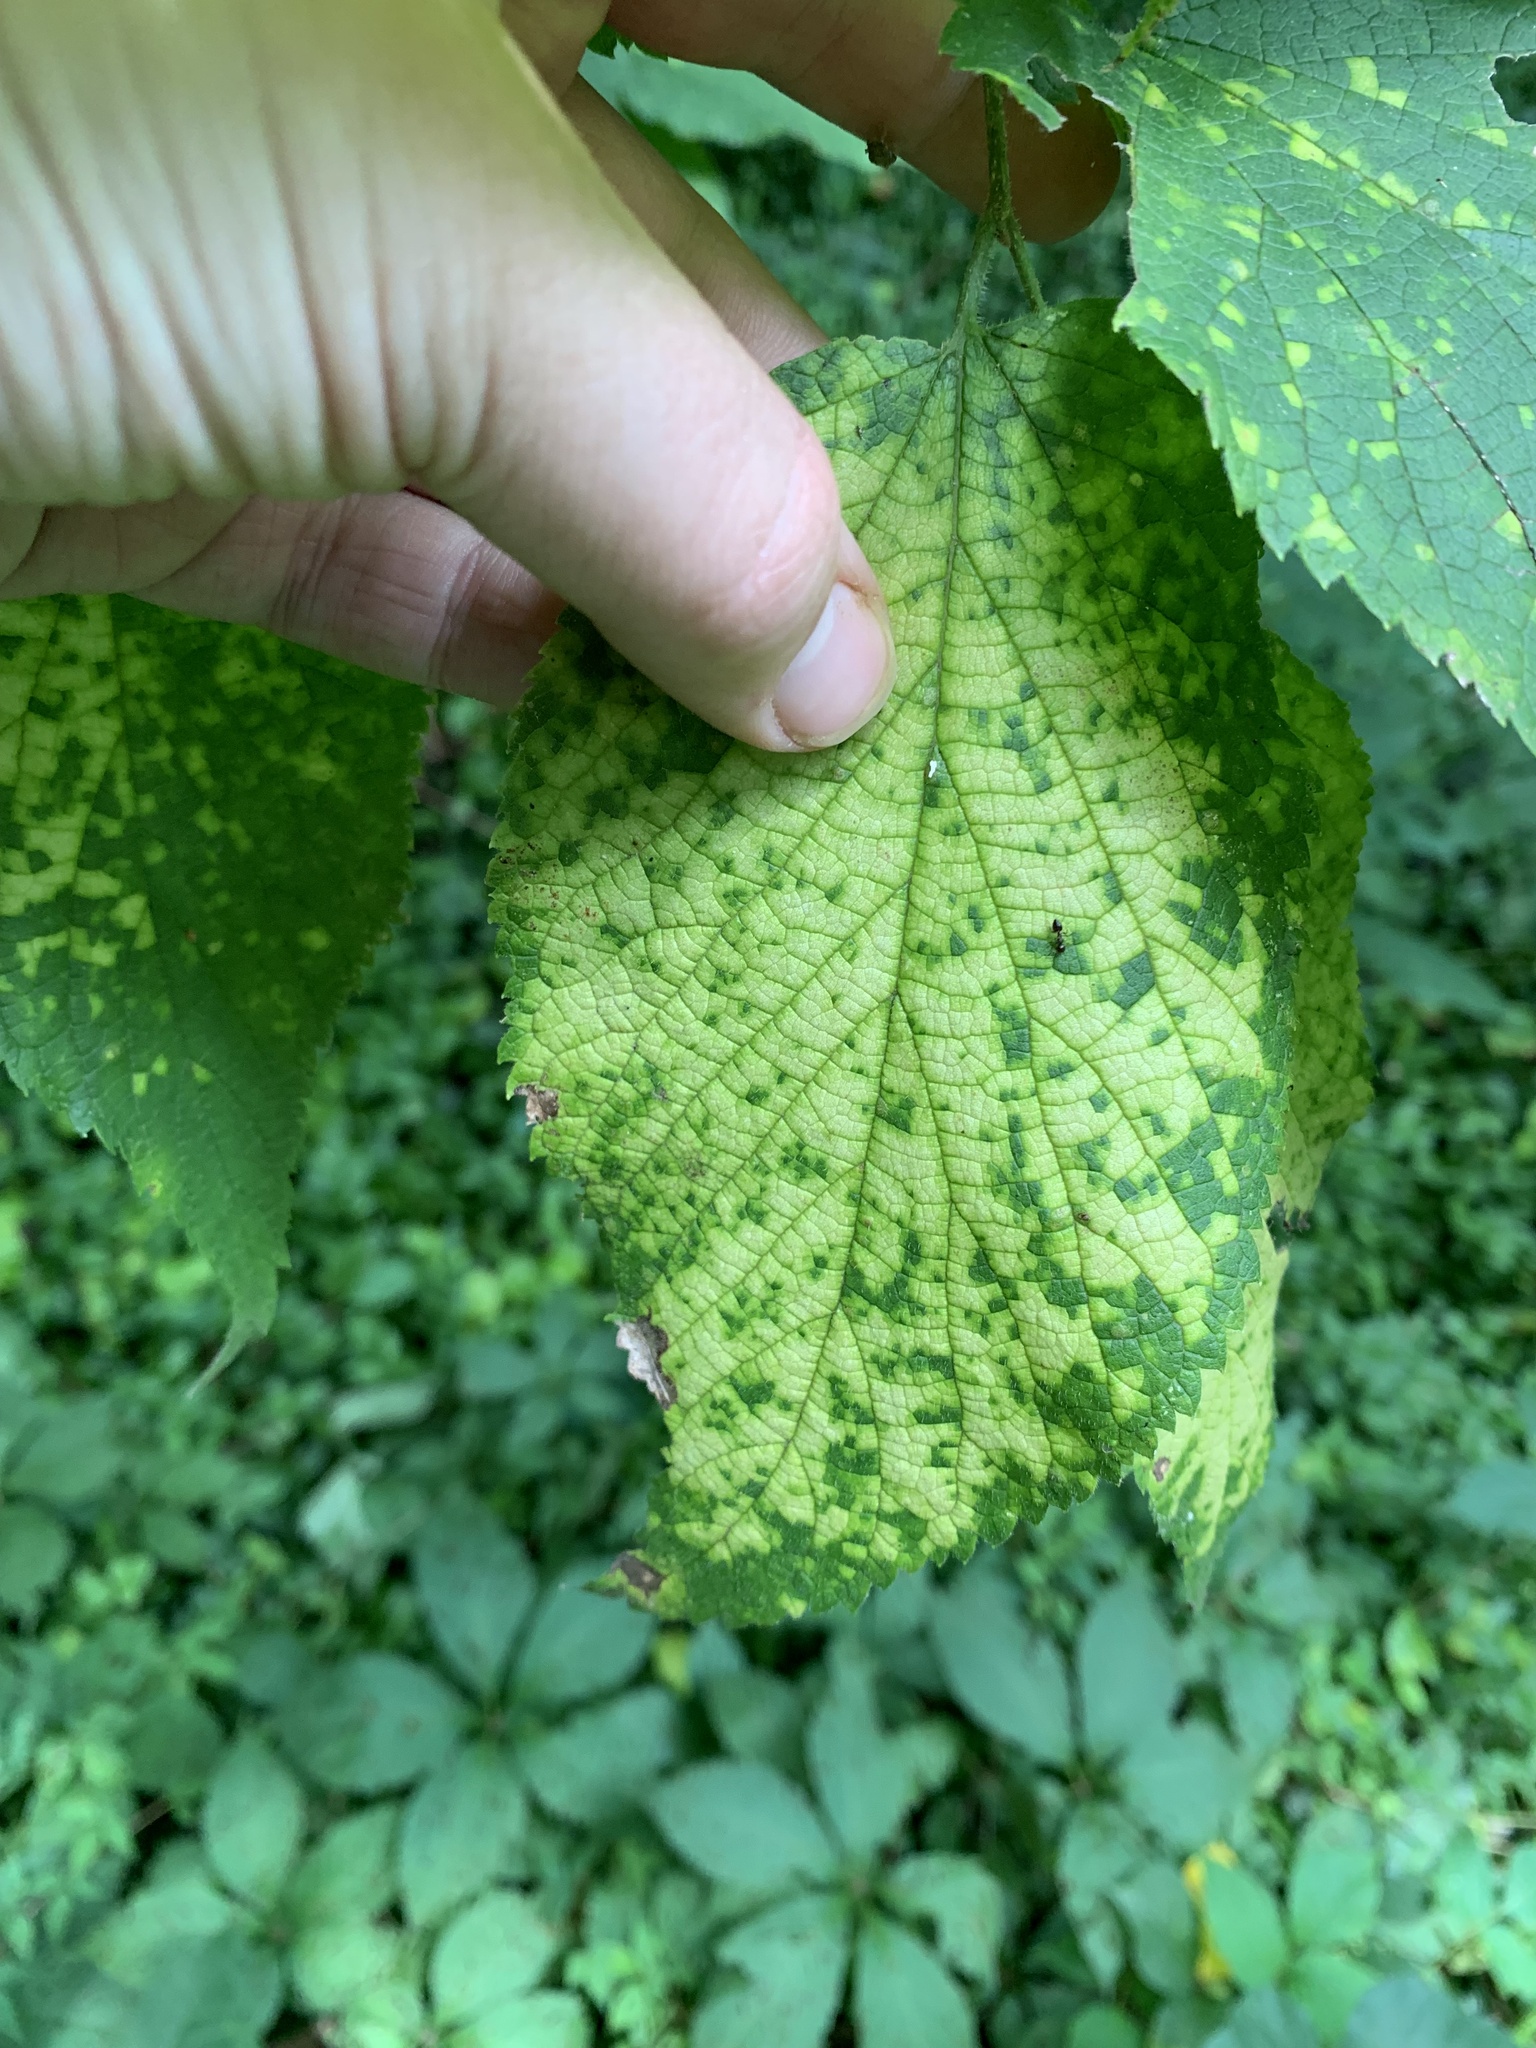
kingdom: Viruses
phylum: Kitrinoviricota
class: Alsuviricetes
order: Martellivirales
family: Closteroviridae
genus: Ampelovirus
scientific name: Ampelovirus
